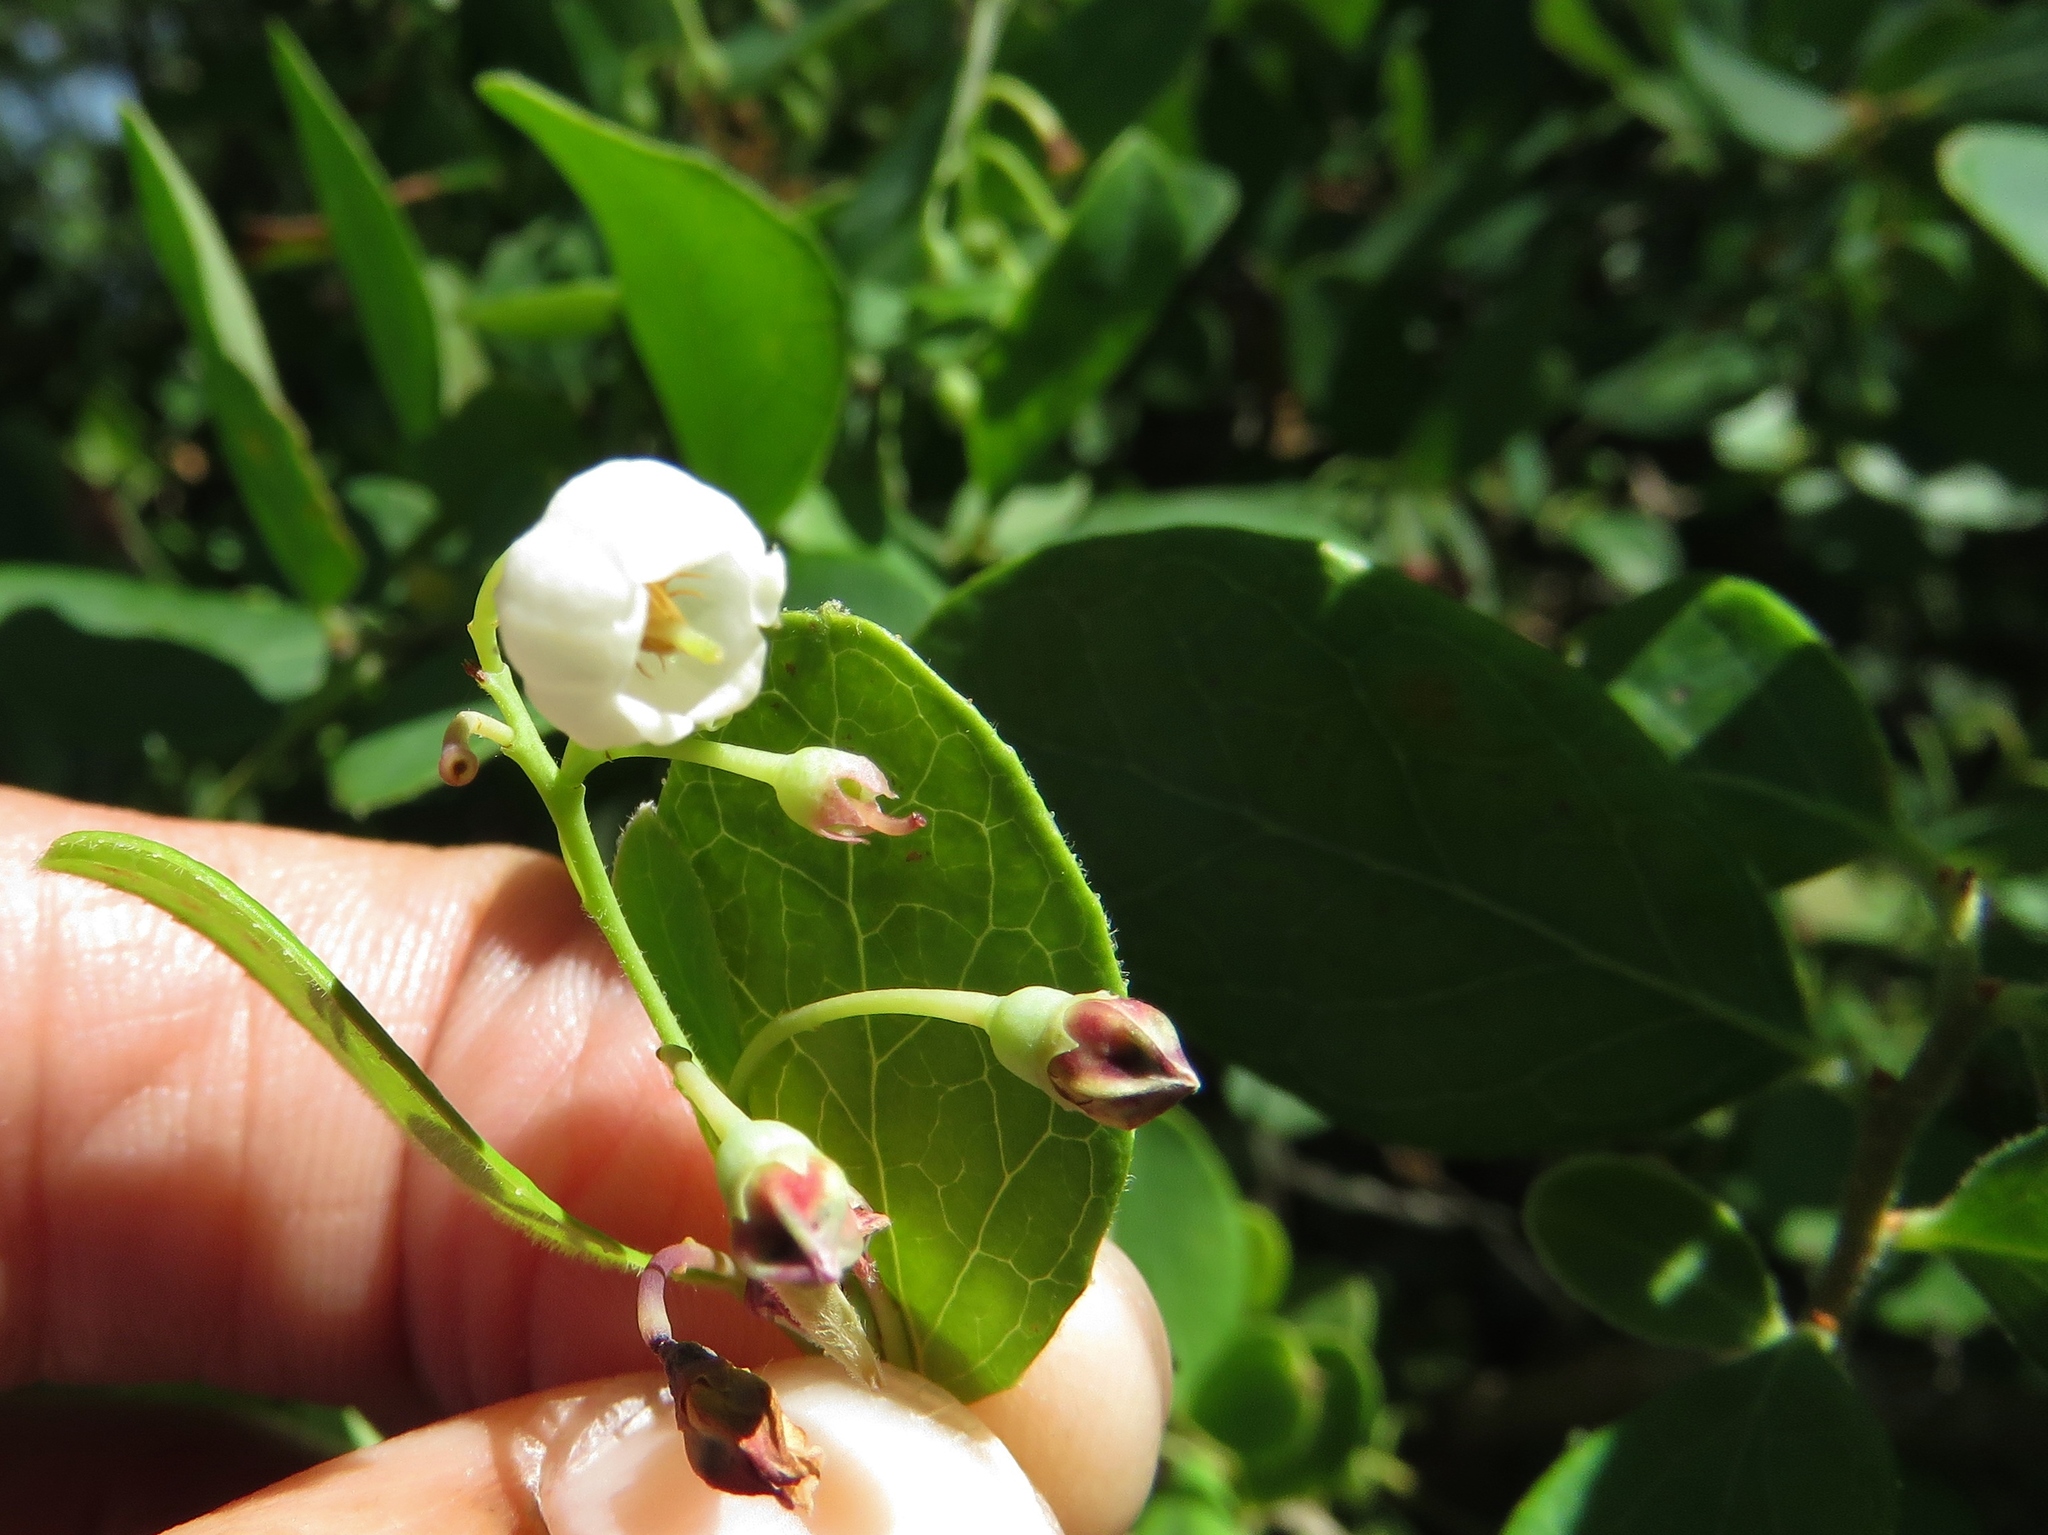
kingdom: Plantae
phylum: Tracheophyta
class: Magnoliopsida
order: Ericales
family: Ericaceae
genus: Vaccinium
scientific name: Vaccinium arboreum
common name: Farkleberry
